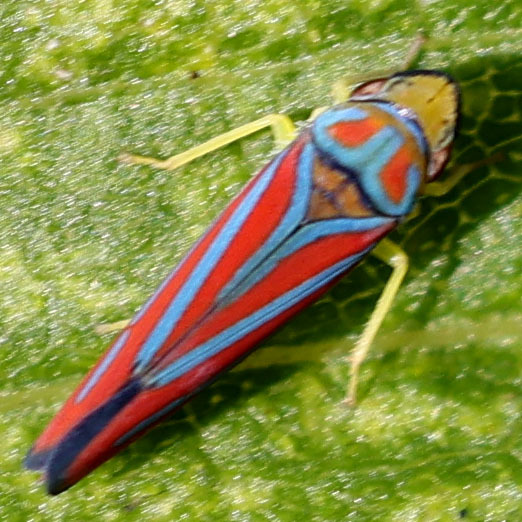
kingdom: Animalia
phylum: Arthropoda
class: Insecta
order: Hemiptera
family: Cicadellidae
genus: Graphocephala
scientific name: Graphocephala coccinea
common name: Candy-striped leafhopper
